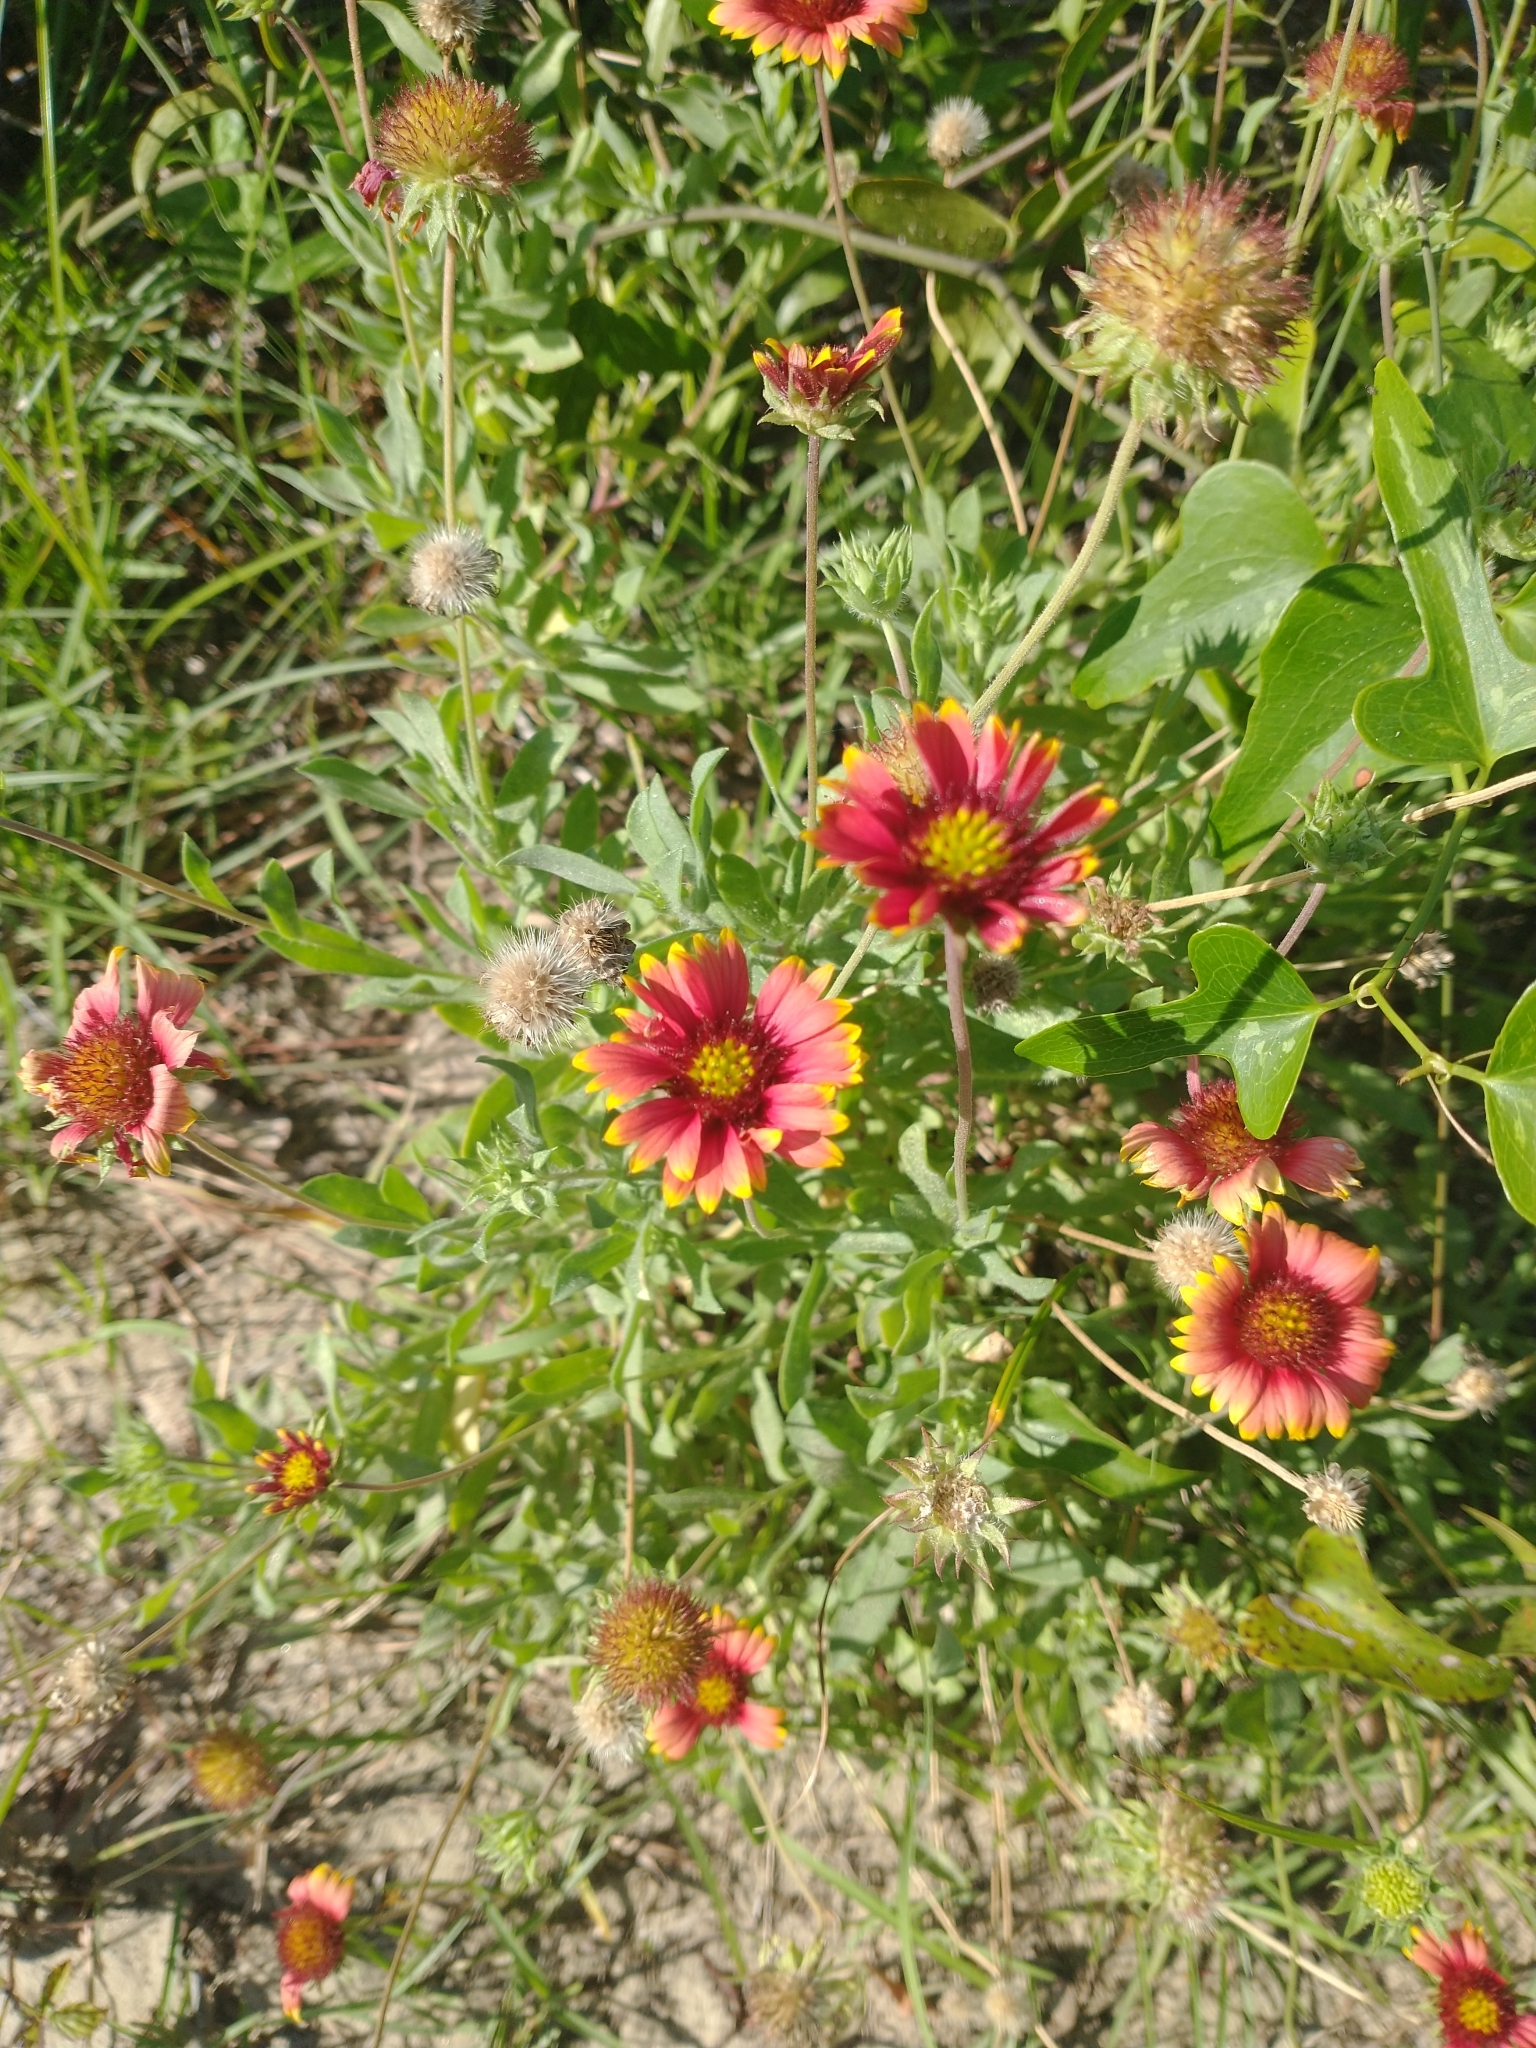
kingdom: Plantae
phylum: Tracheophyta
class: Magnoliopsida
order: Asterales
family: Asteraceae
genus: Gaillardia
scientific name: Gaillardia pulchella
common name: Firewheel
